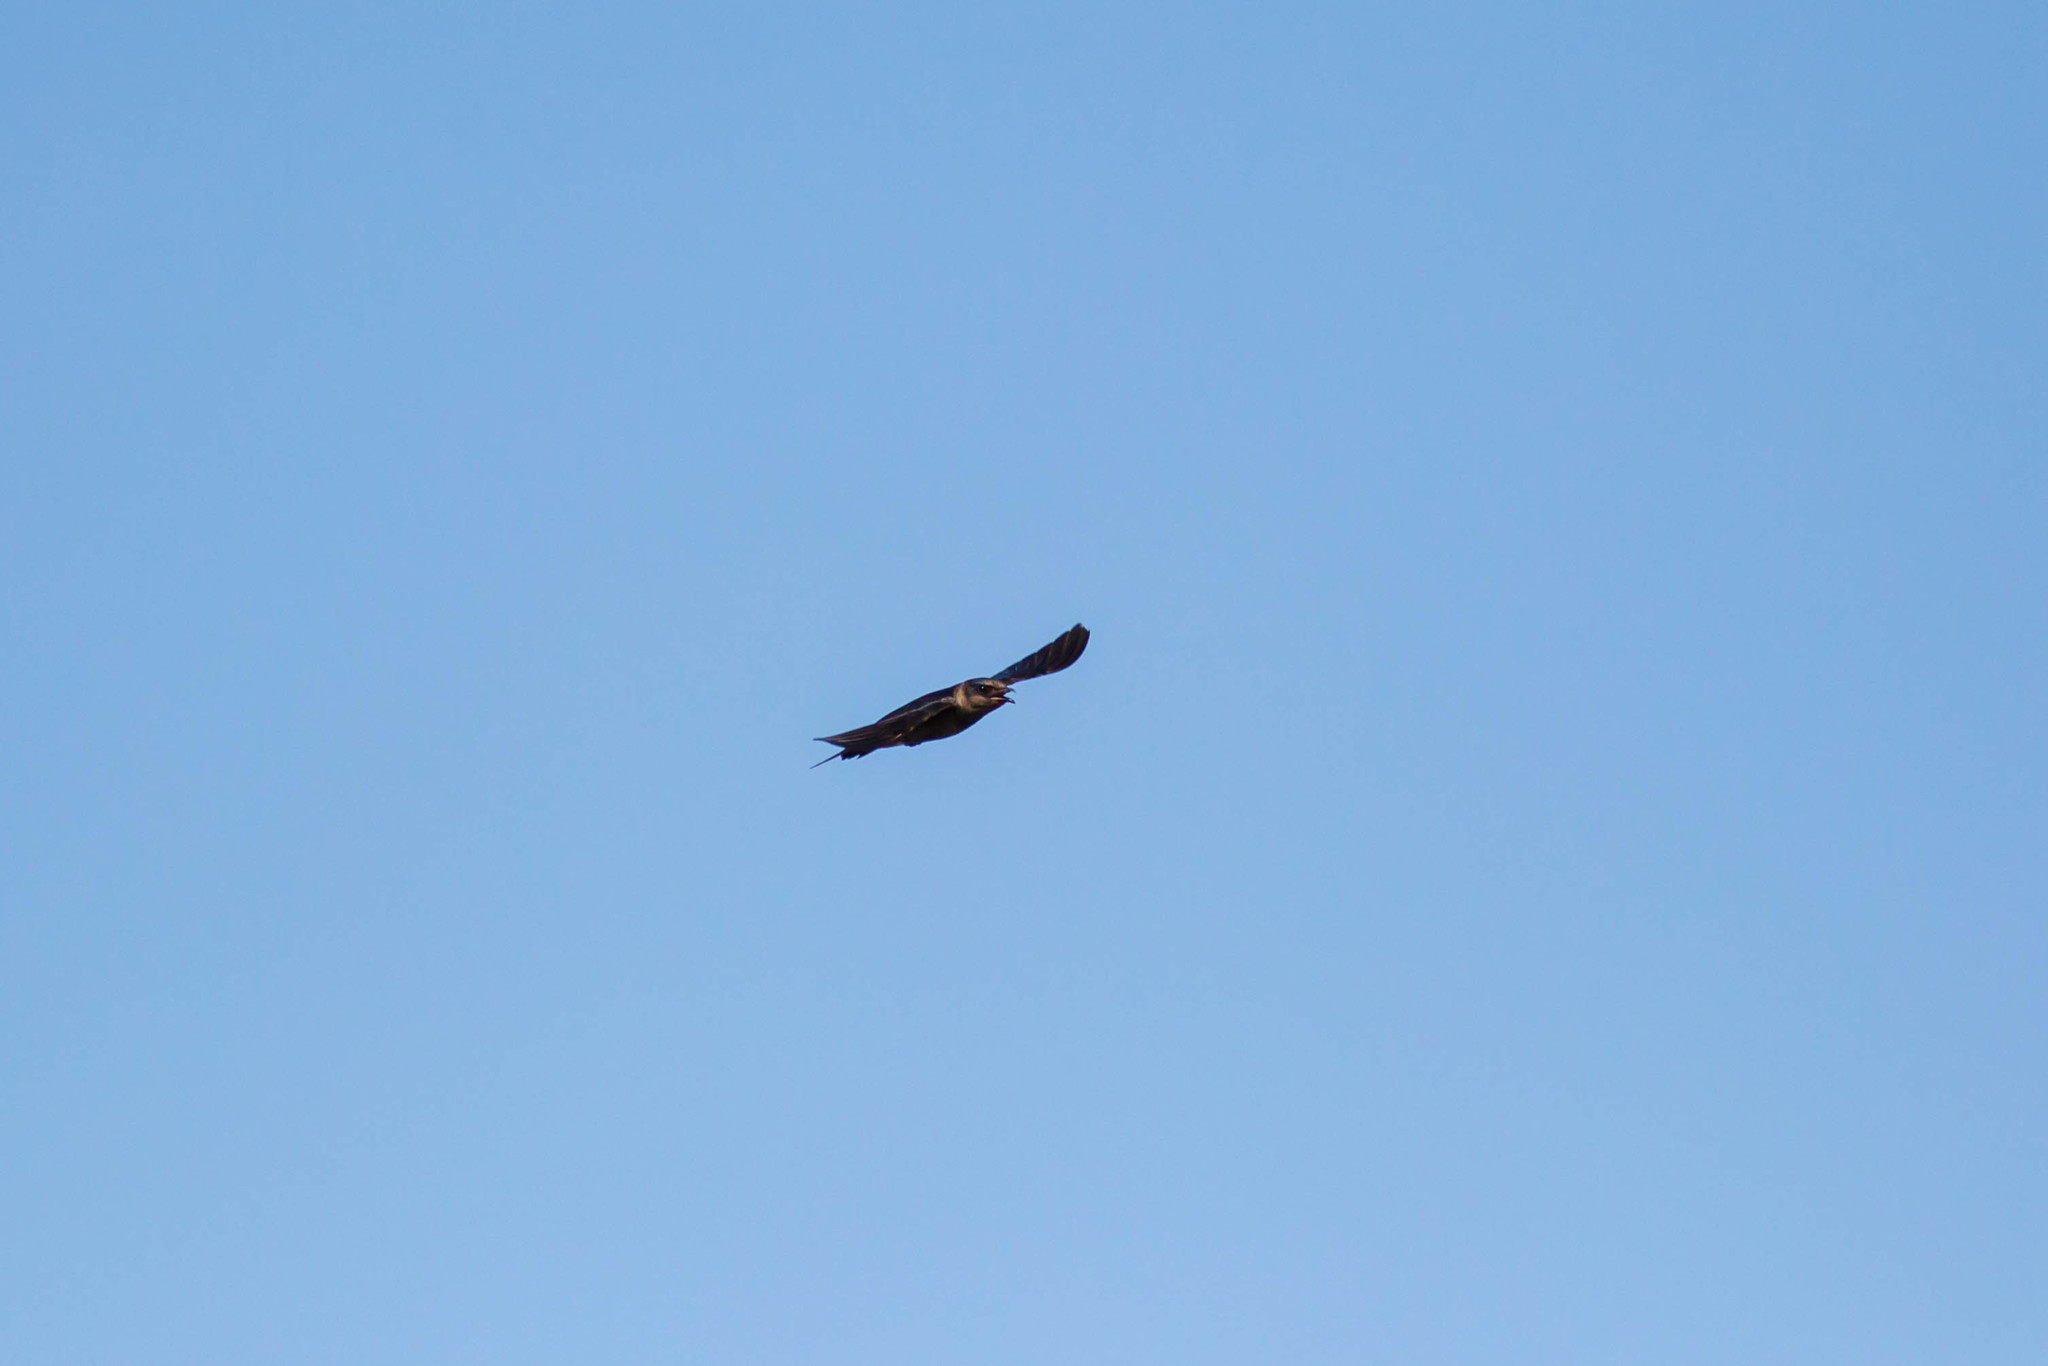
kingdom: Animalia
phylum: Chordata
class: Aves
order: Passeriformes
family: Hirundinidae
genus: Progne
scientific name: Progne subis
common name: Purple martin
